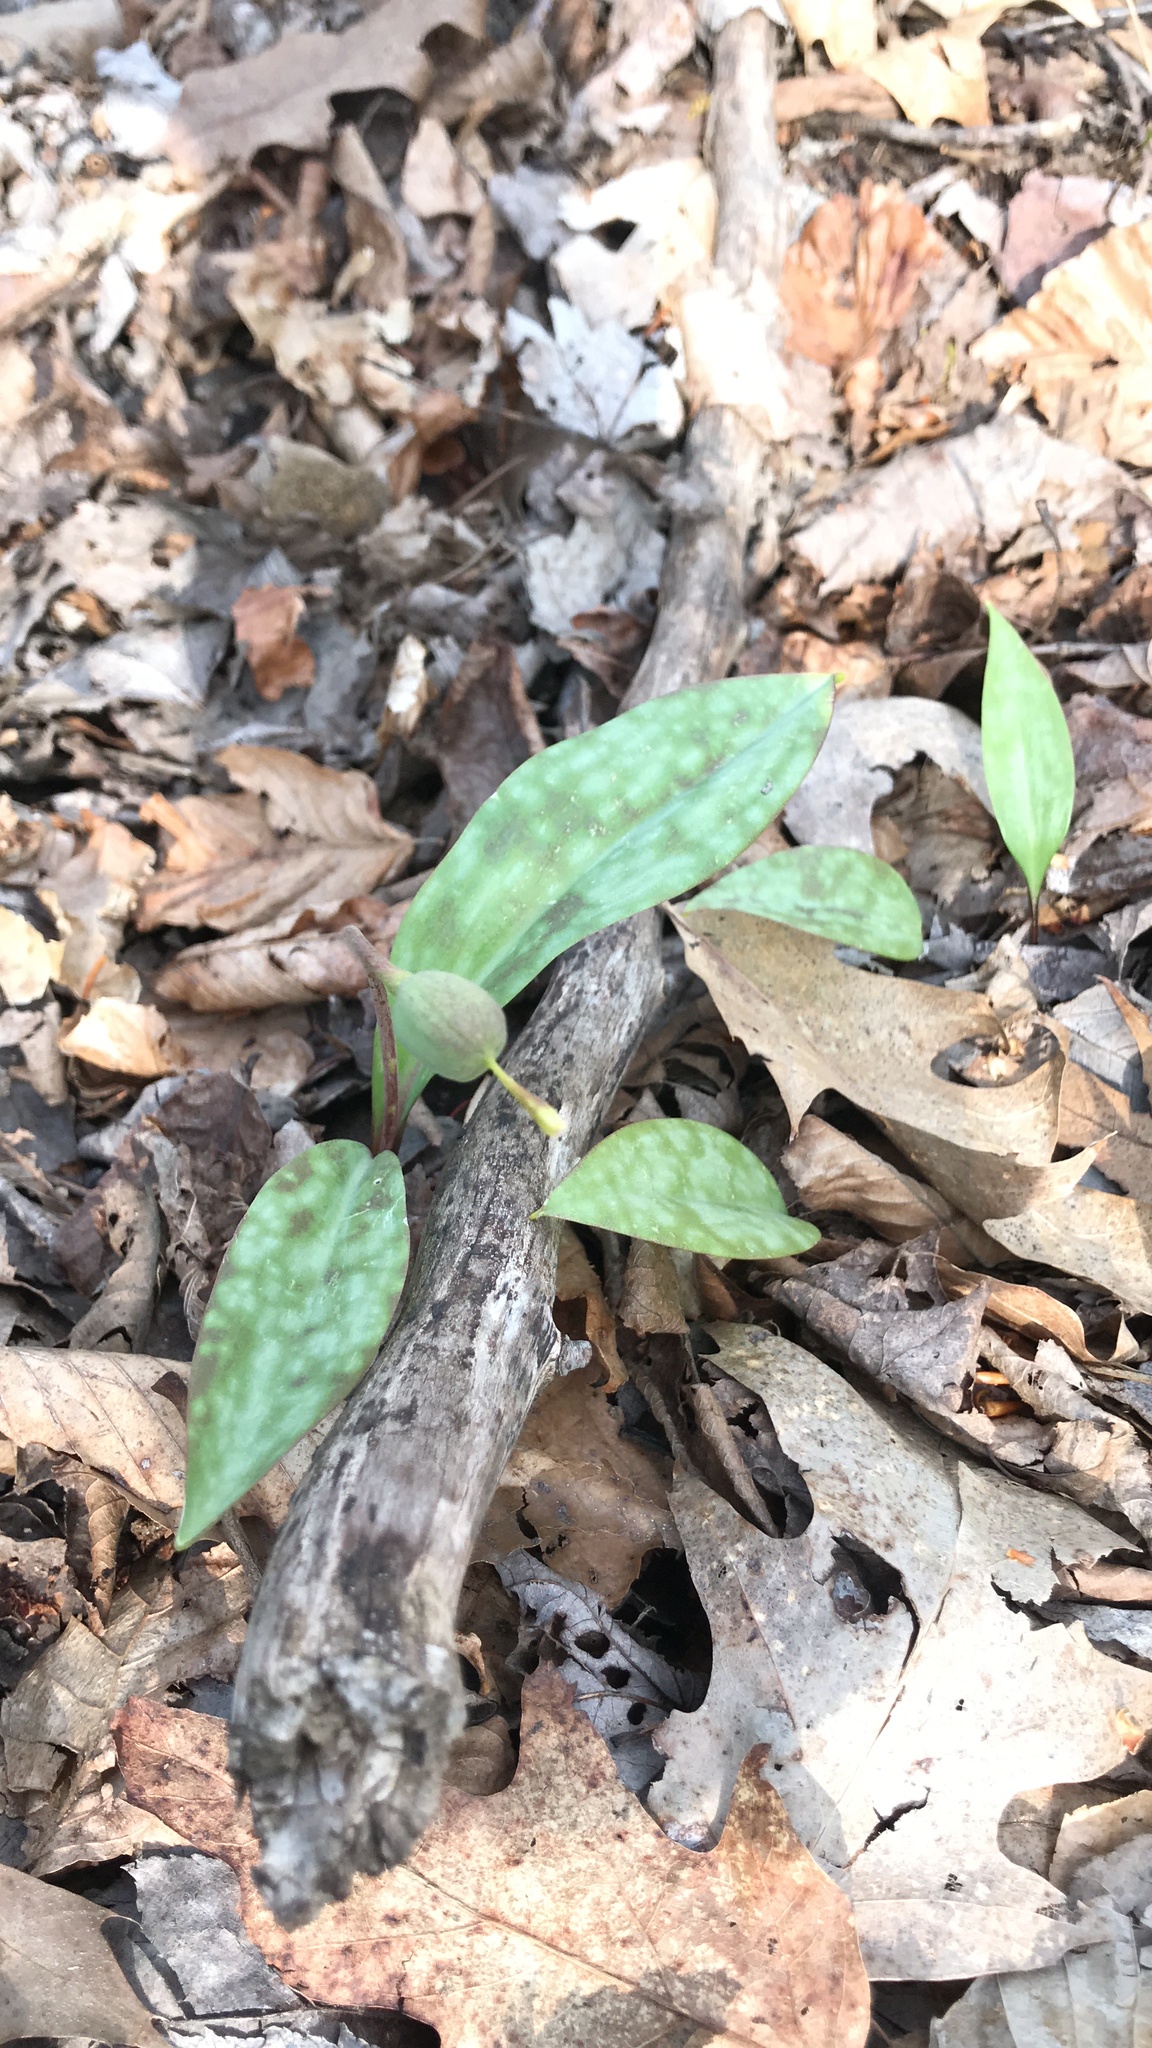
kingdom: Plantae
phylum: Tracheophyta
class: Liliopsida
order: Liliales
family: Liliaceae
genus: Erythronium
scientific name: Erythronium americanum
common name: Yellow adder's-tongue
